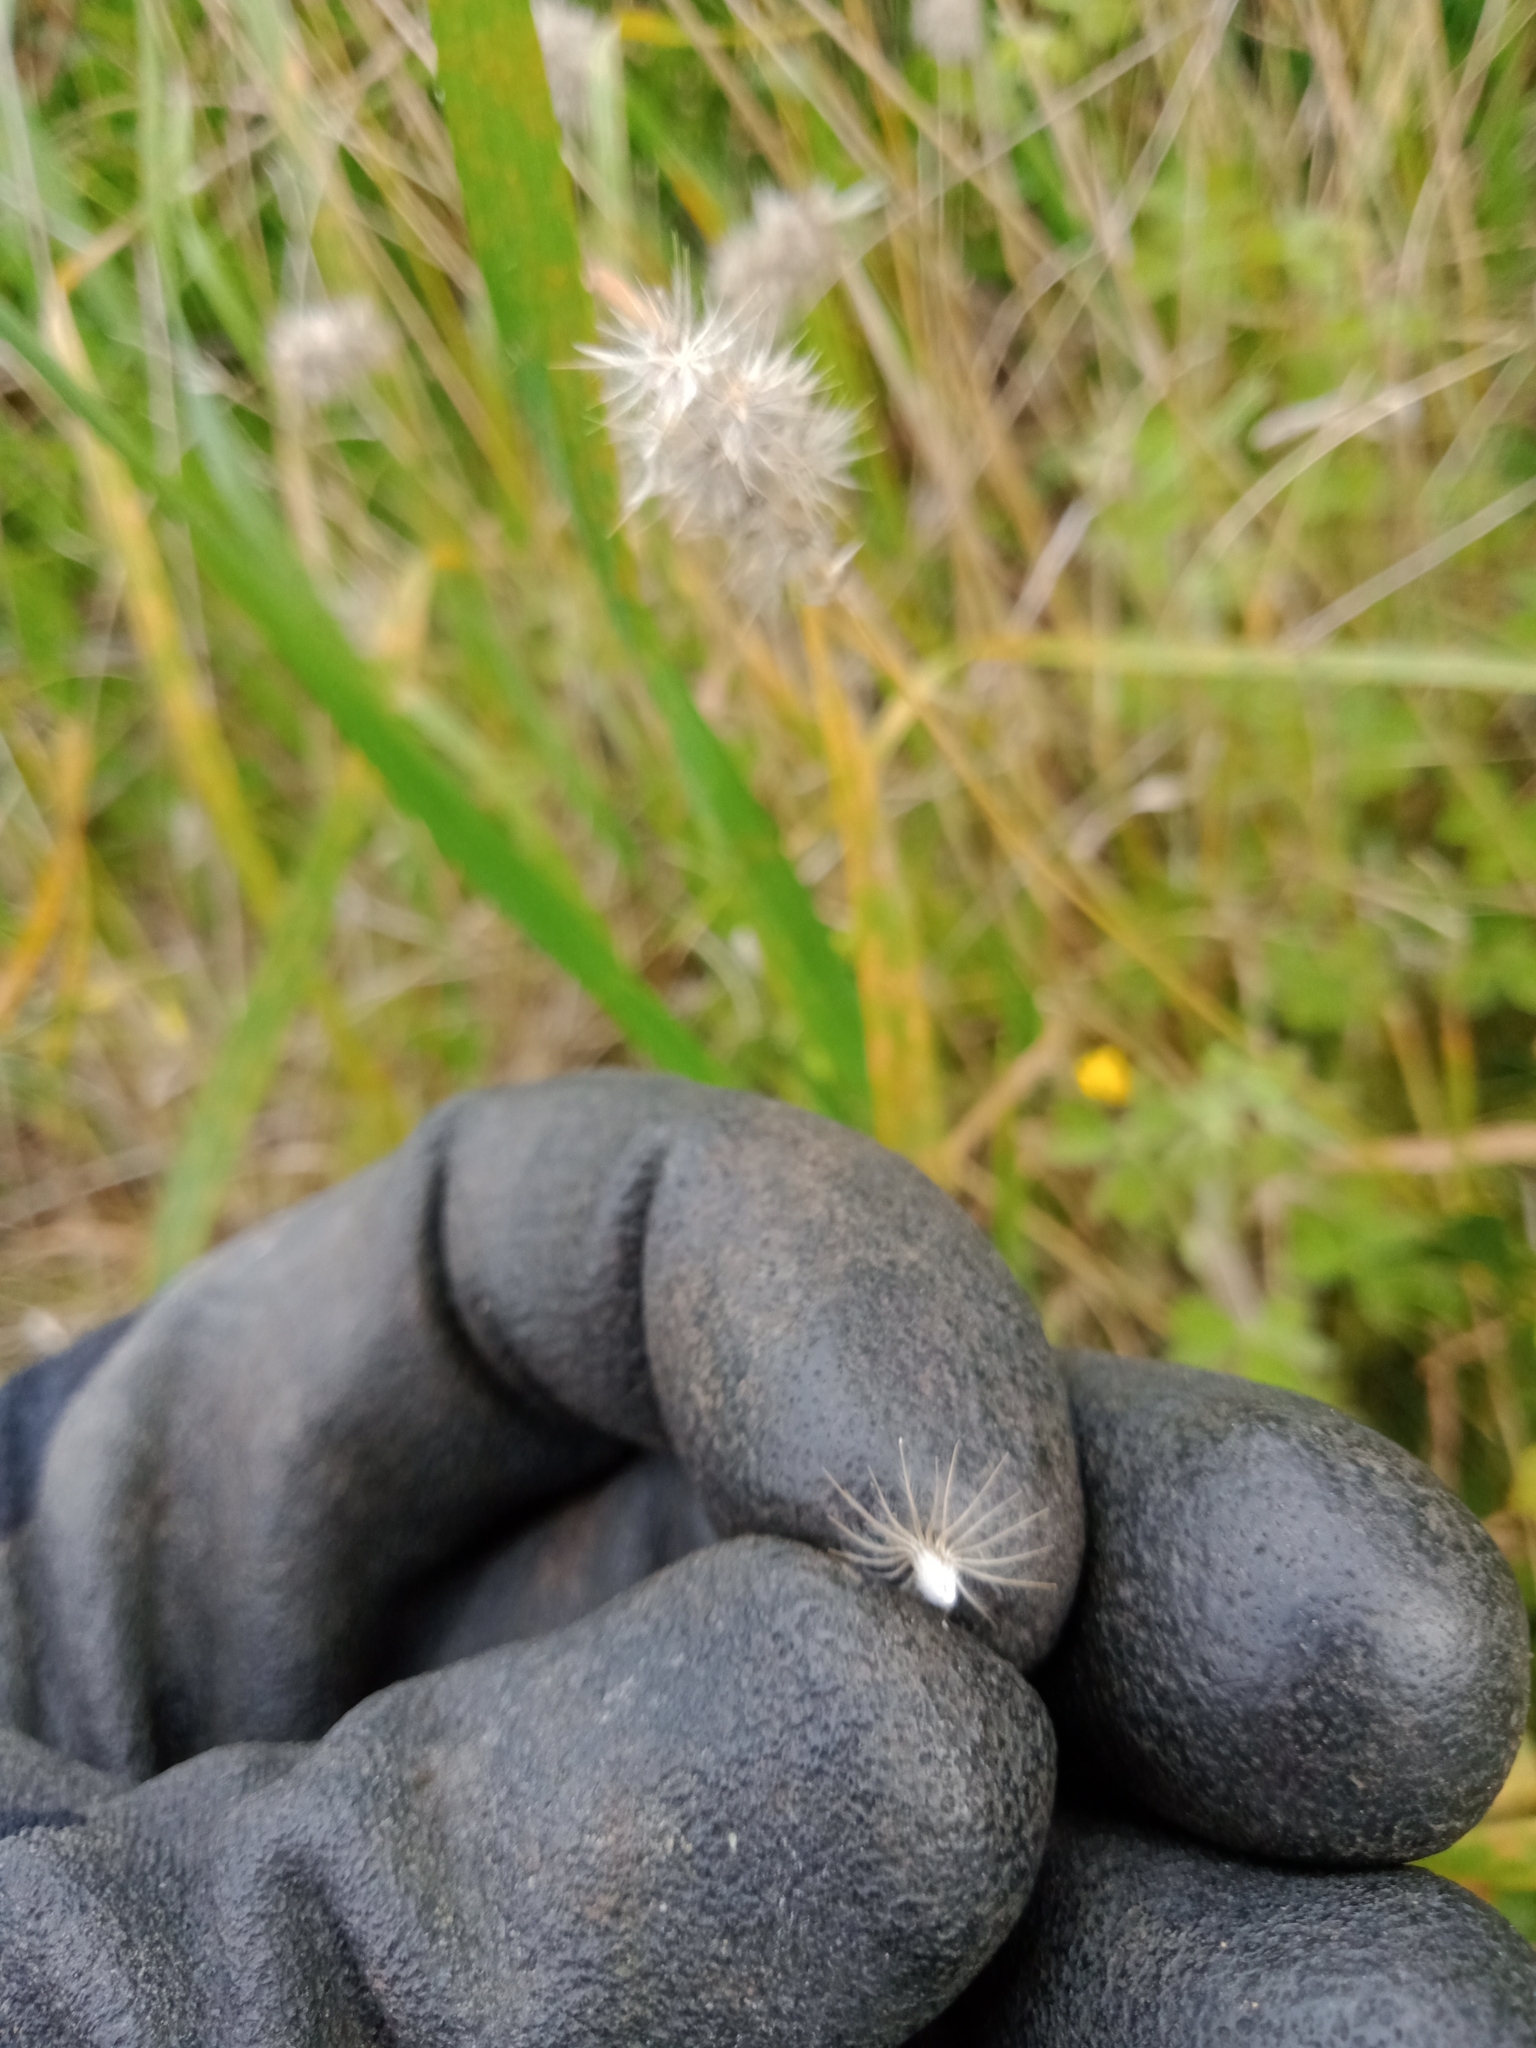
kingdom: Plantae
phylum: Tracheophyta
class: Liliopsida
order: Poales
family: Poaceae
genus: Enneapogon
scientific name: Enneapogon nigricans
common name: Pappus grass
